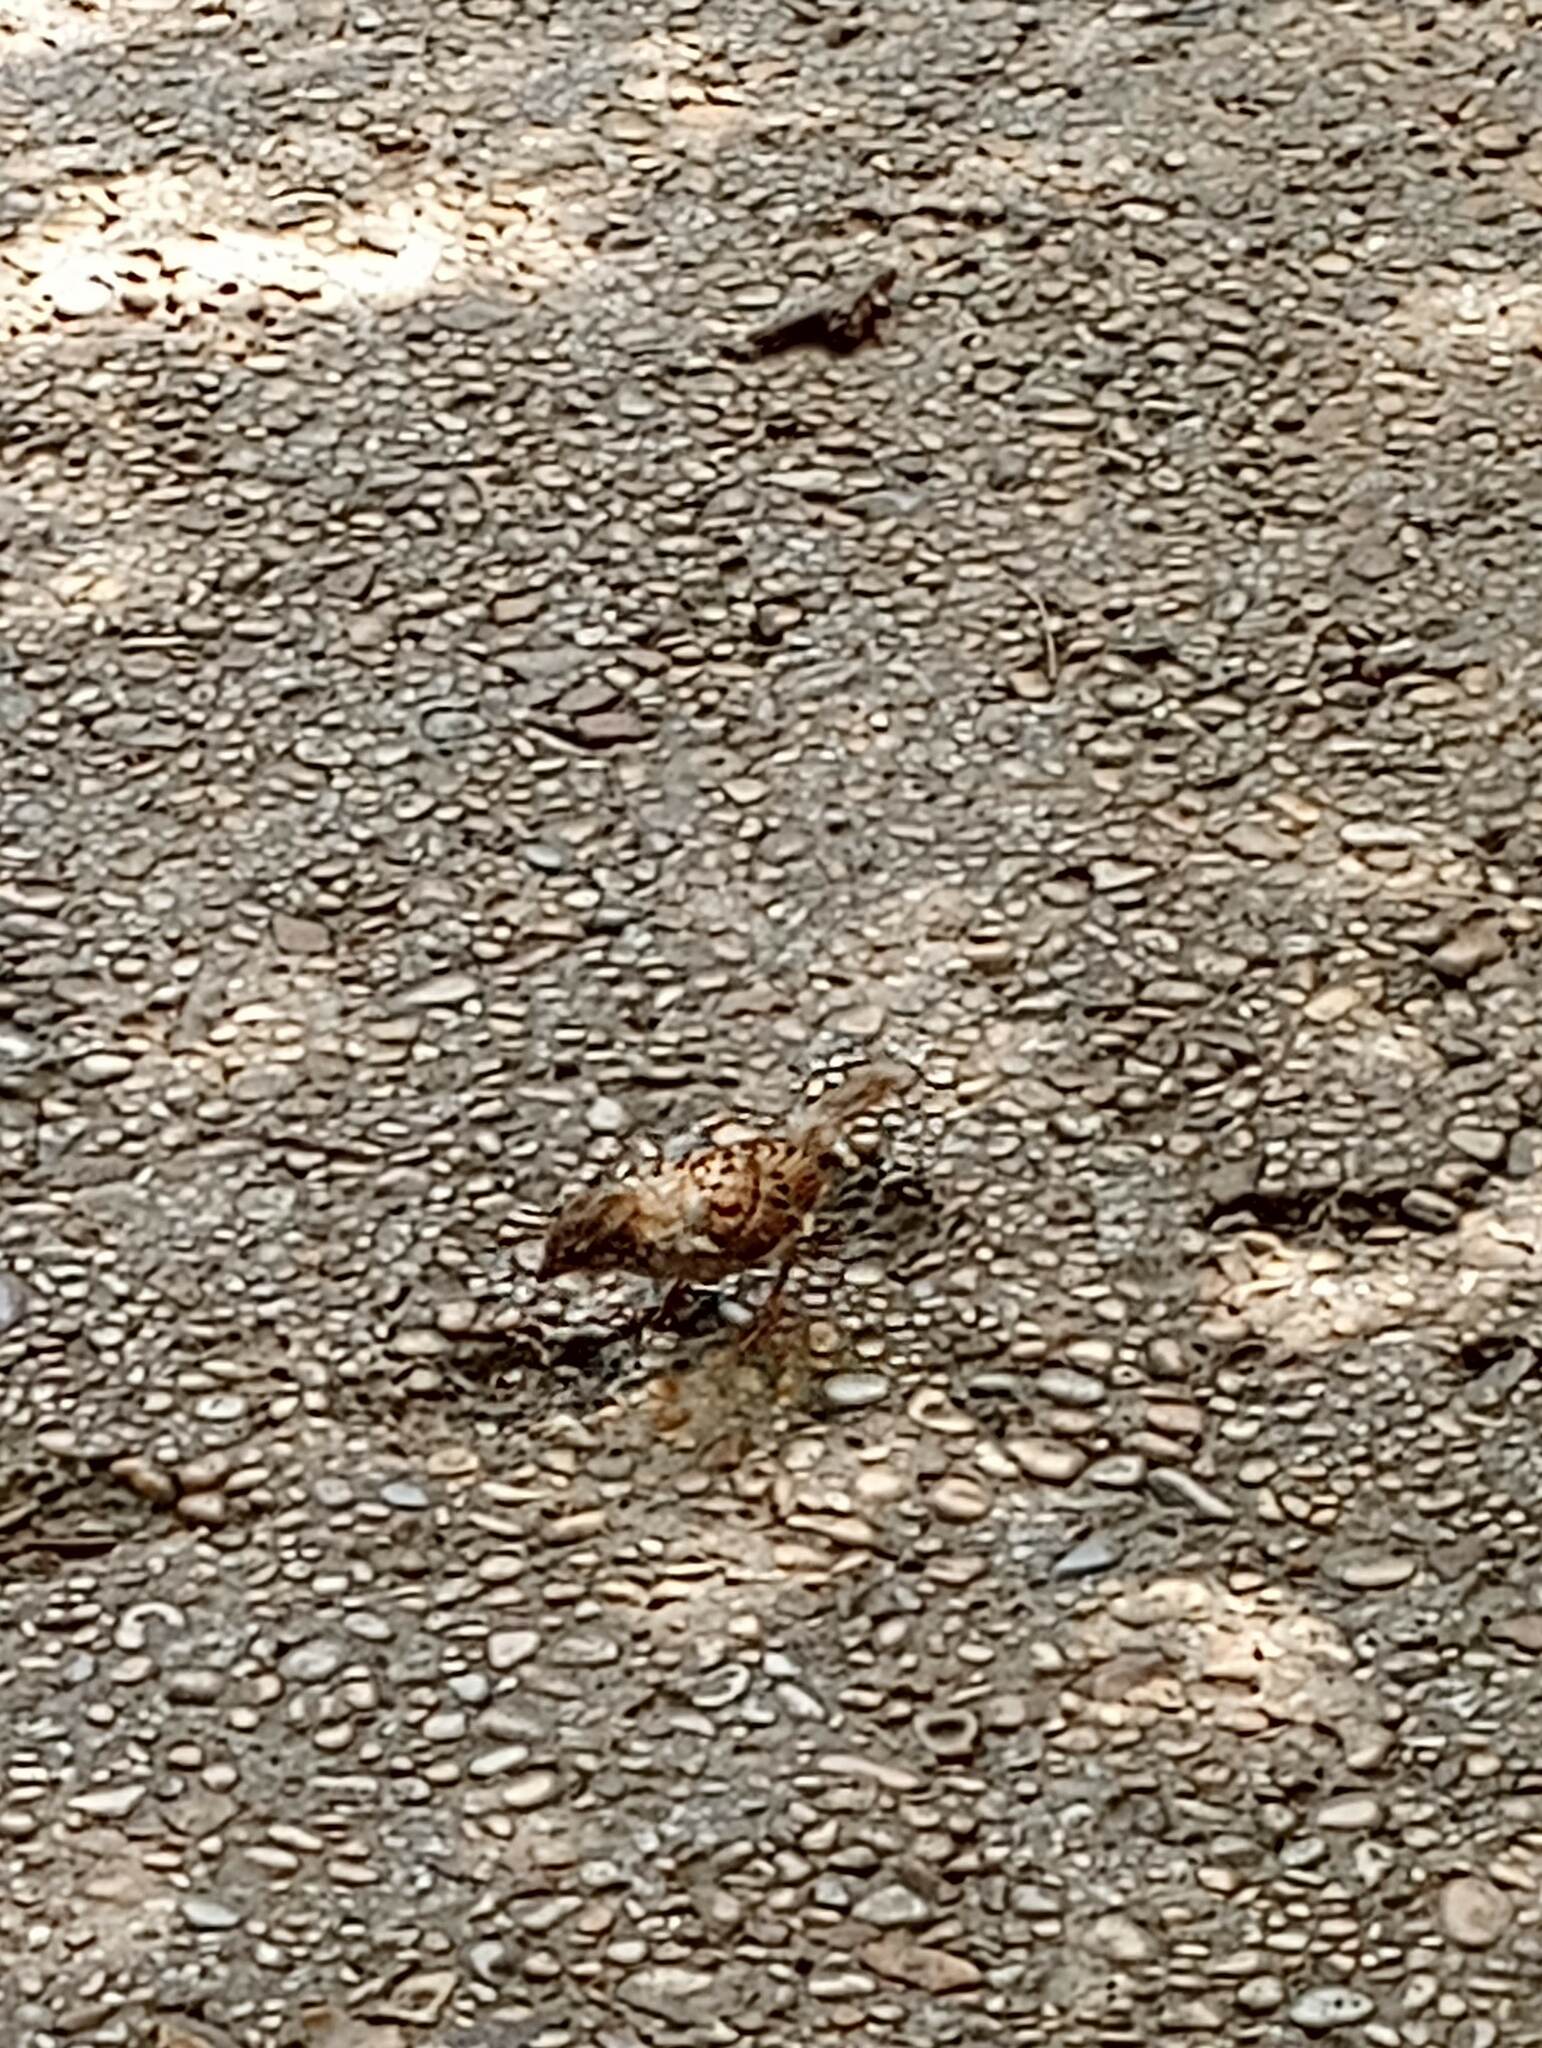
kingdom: Animalia
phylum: Chordata
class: Aves
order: Passeriformes
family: Passeridae
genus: Passer
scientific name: Passer domesticus
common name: House sparrow
